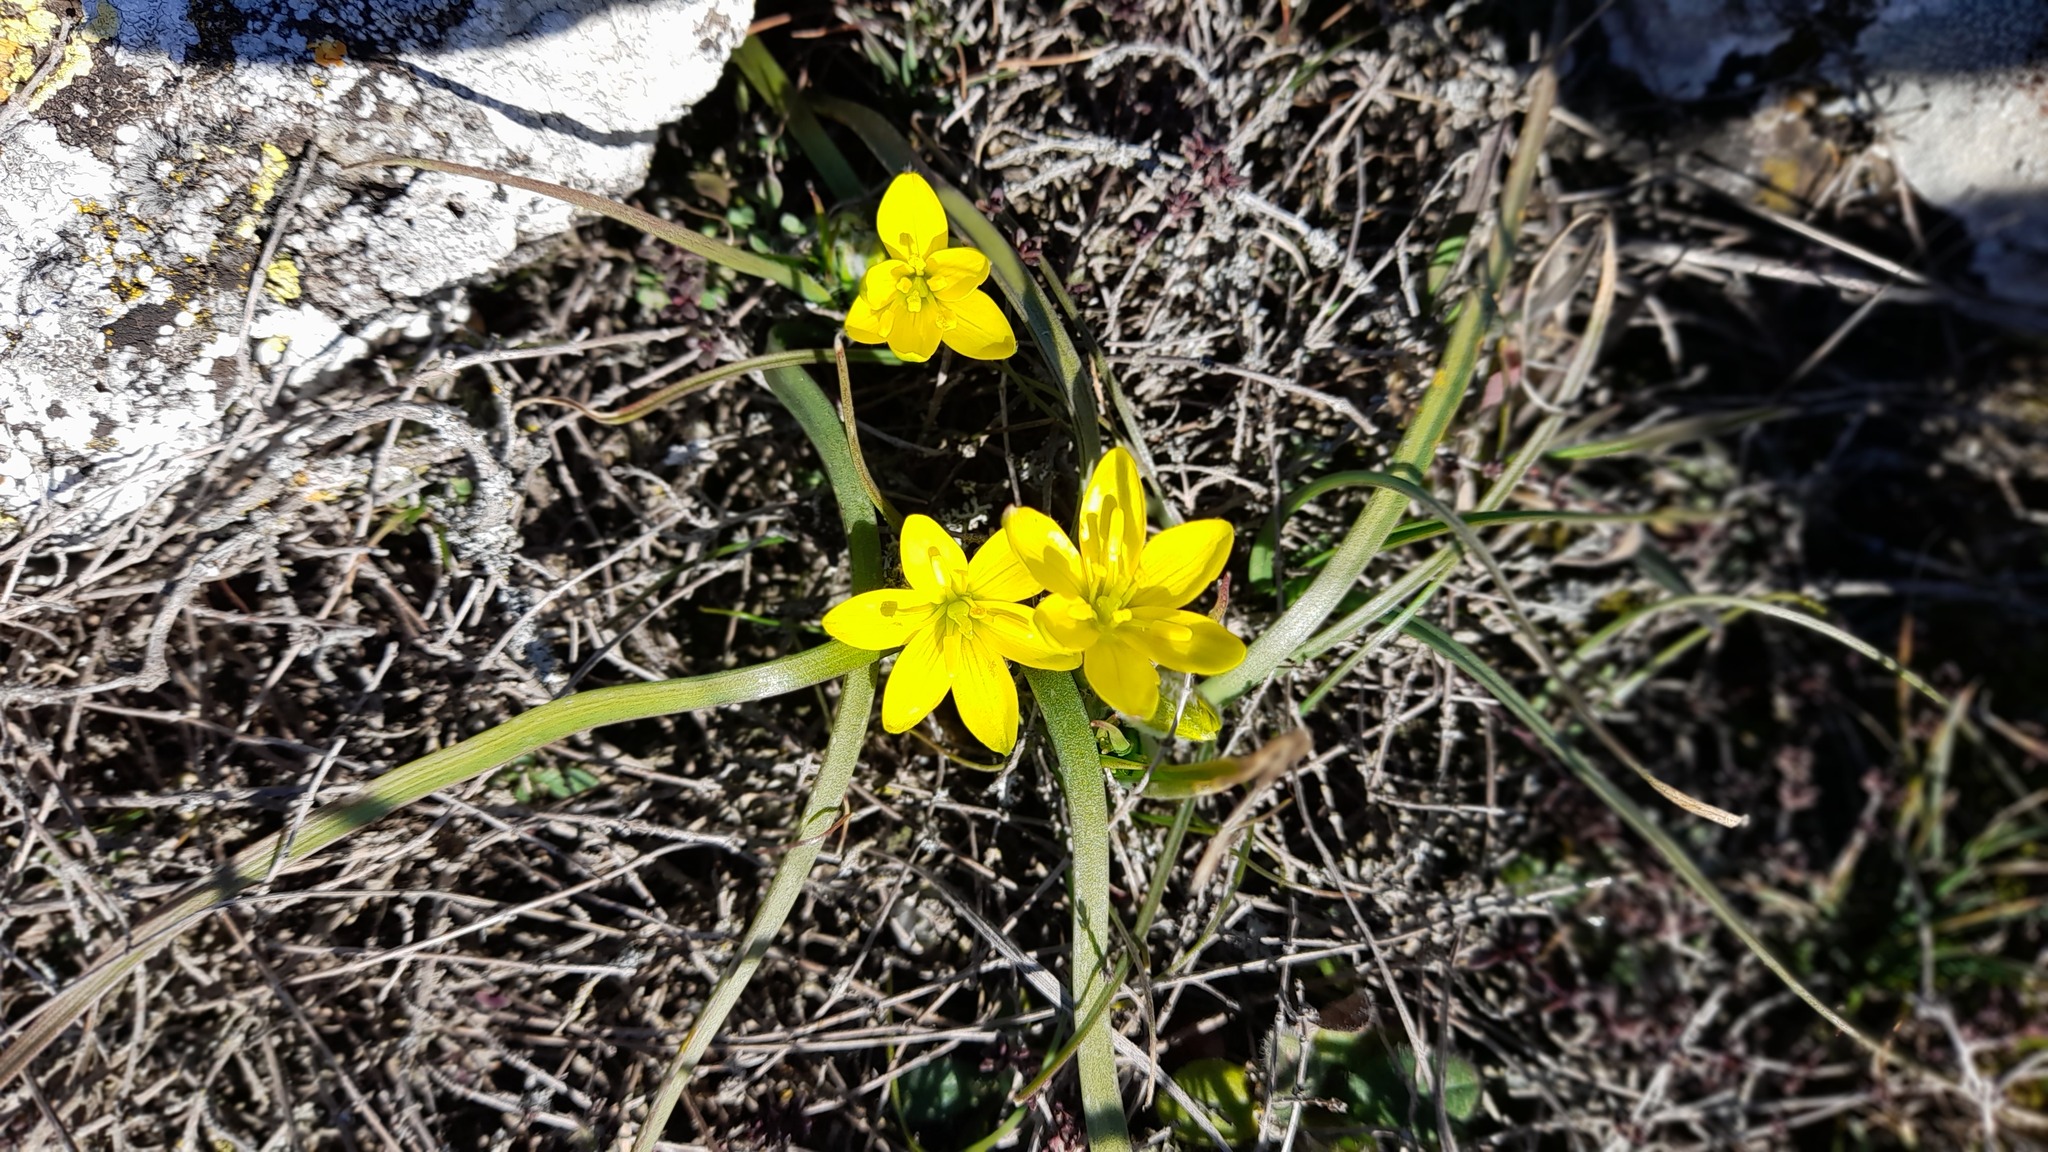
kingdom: Plantae
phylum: Tracheophyta
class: Liliopsida
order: Liliales
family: Liliaceae
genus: Gagea
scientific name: Gagea granatellii
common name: Granatelli’s gagea
